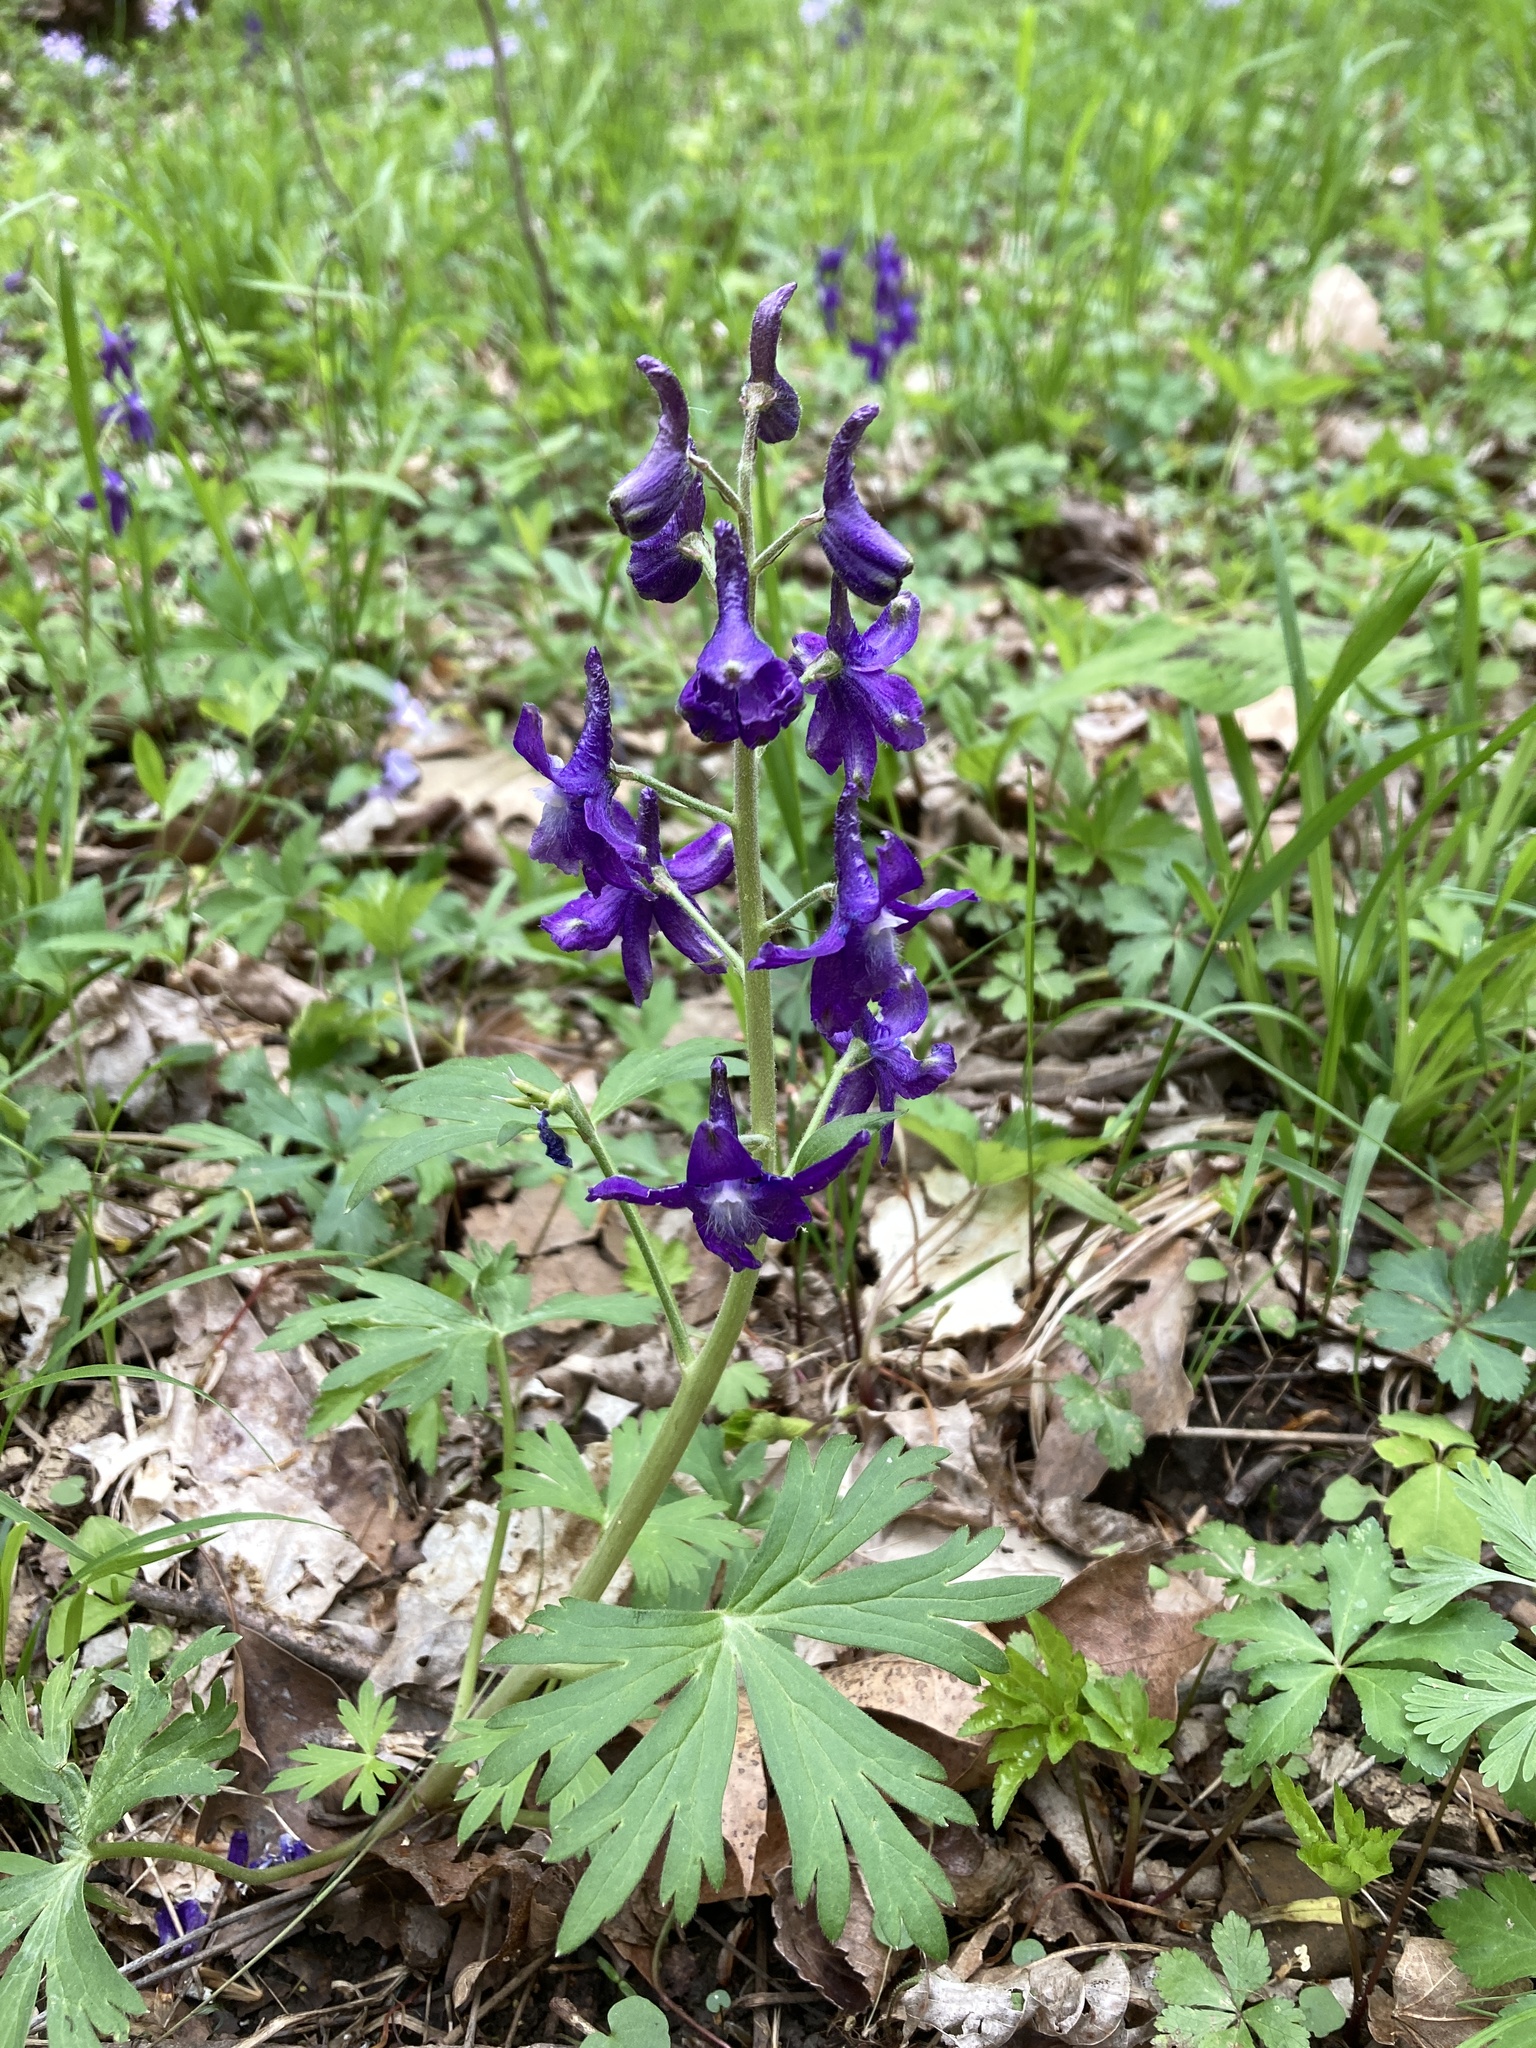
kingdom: Plantae
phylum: Tracheophyta
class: Magnoliopsida
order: Ranunculales
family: Ranunculaceae
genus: Delphinium
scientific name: Delphinium tricorne
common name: Dwarf larkspur
